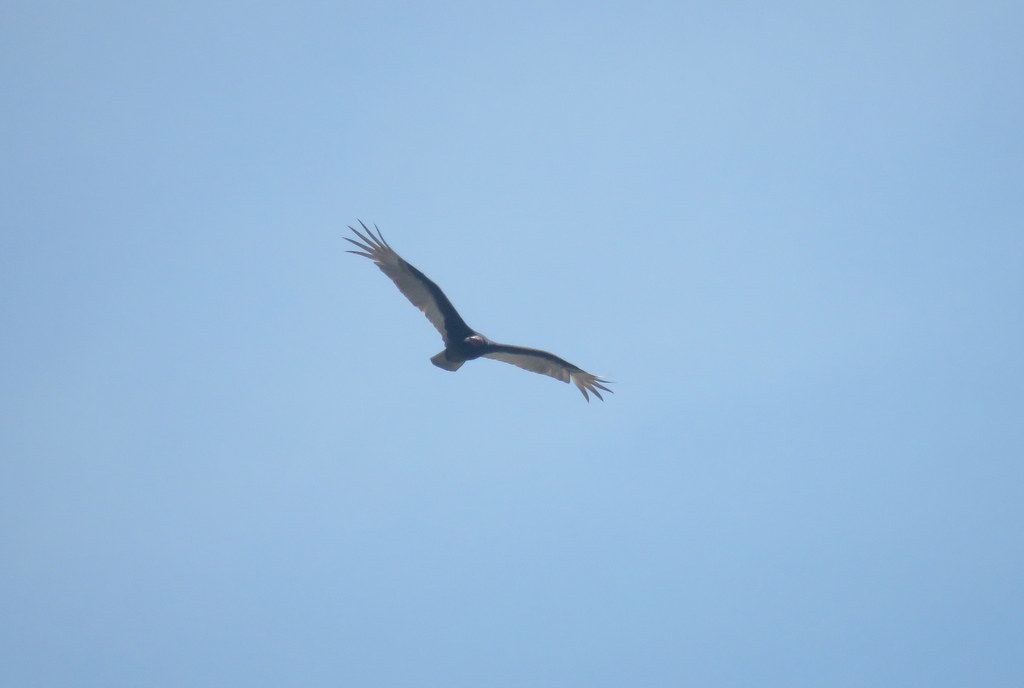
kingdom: Animalia
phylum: Chordata
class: Aves
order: Accipitriformes
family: Cathartidae
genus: Cathartes
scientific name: Cathartes aura
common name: Turkey vulture
